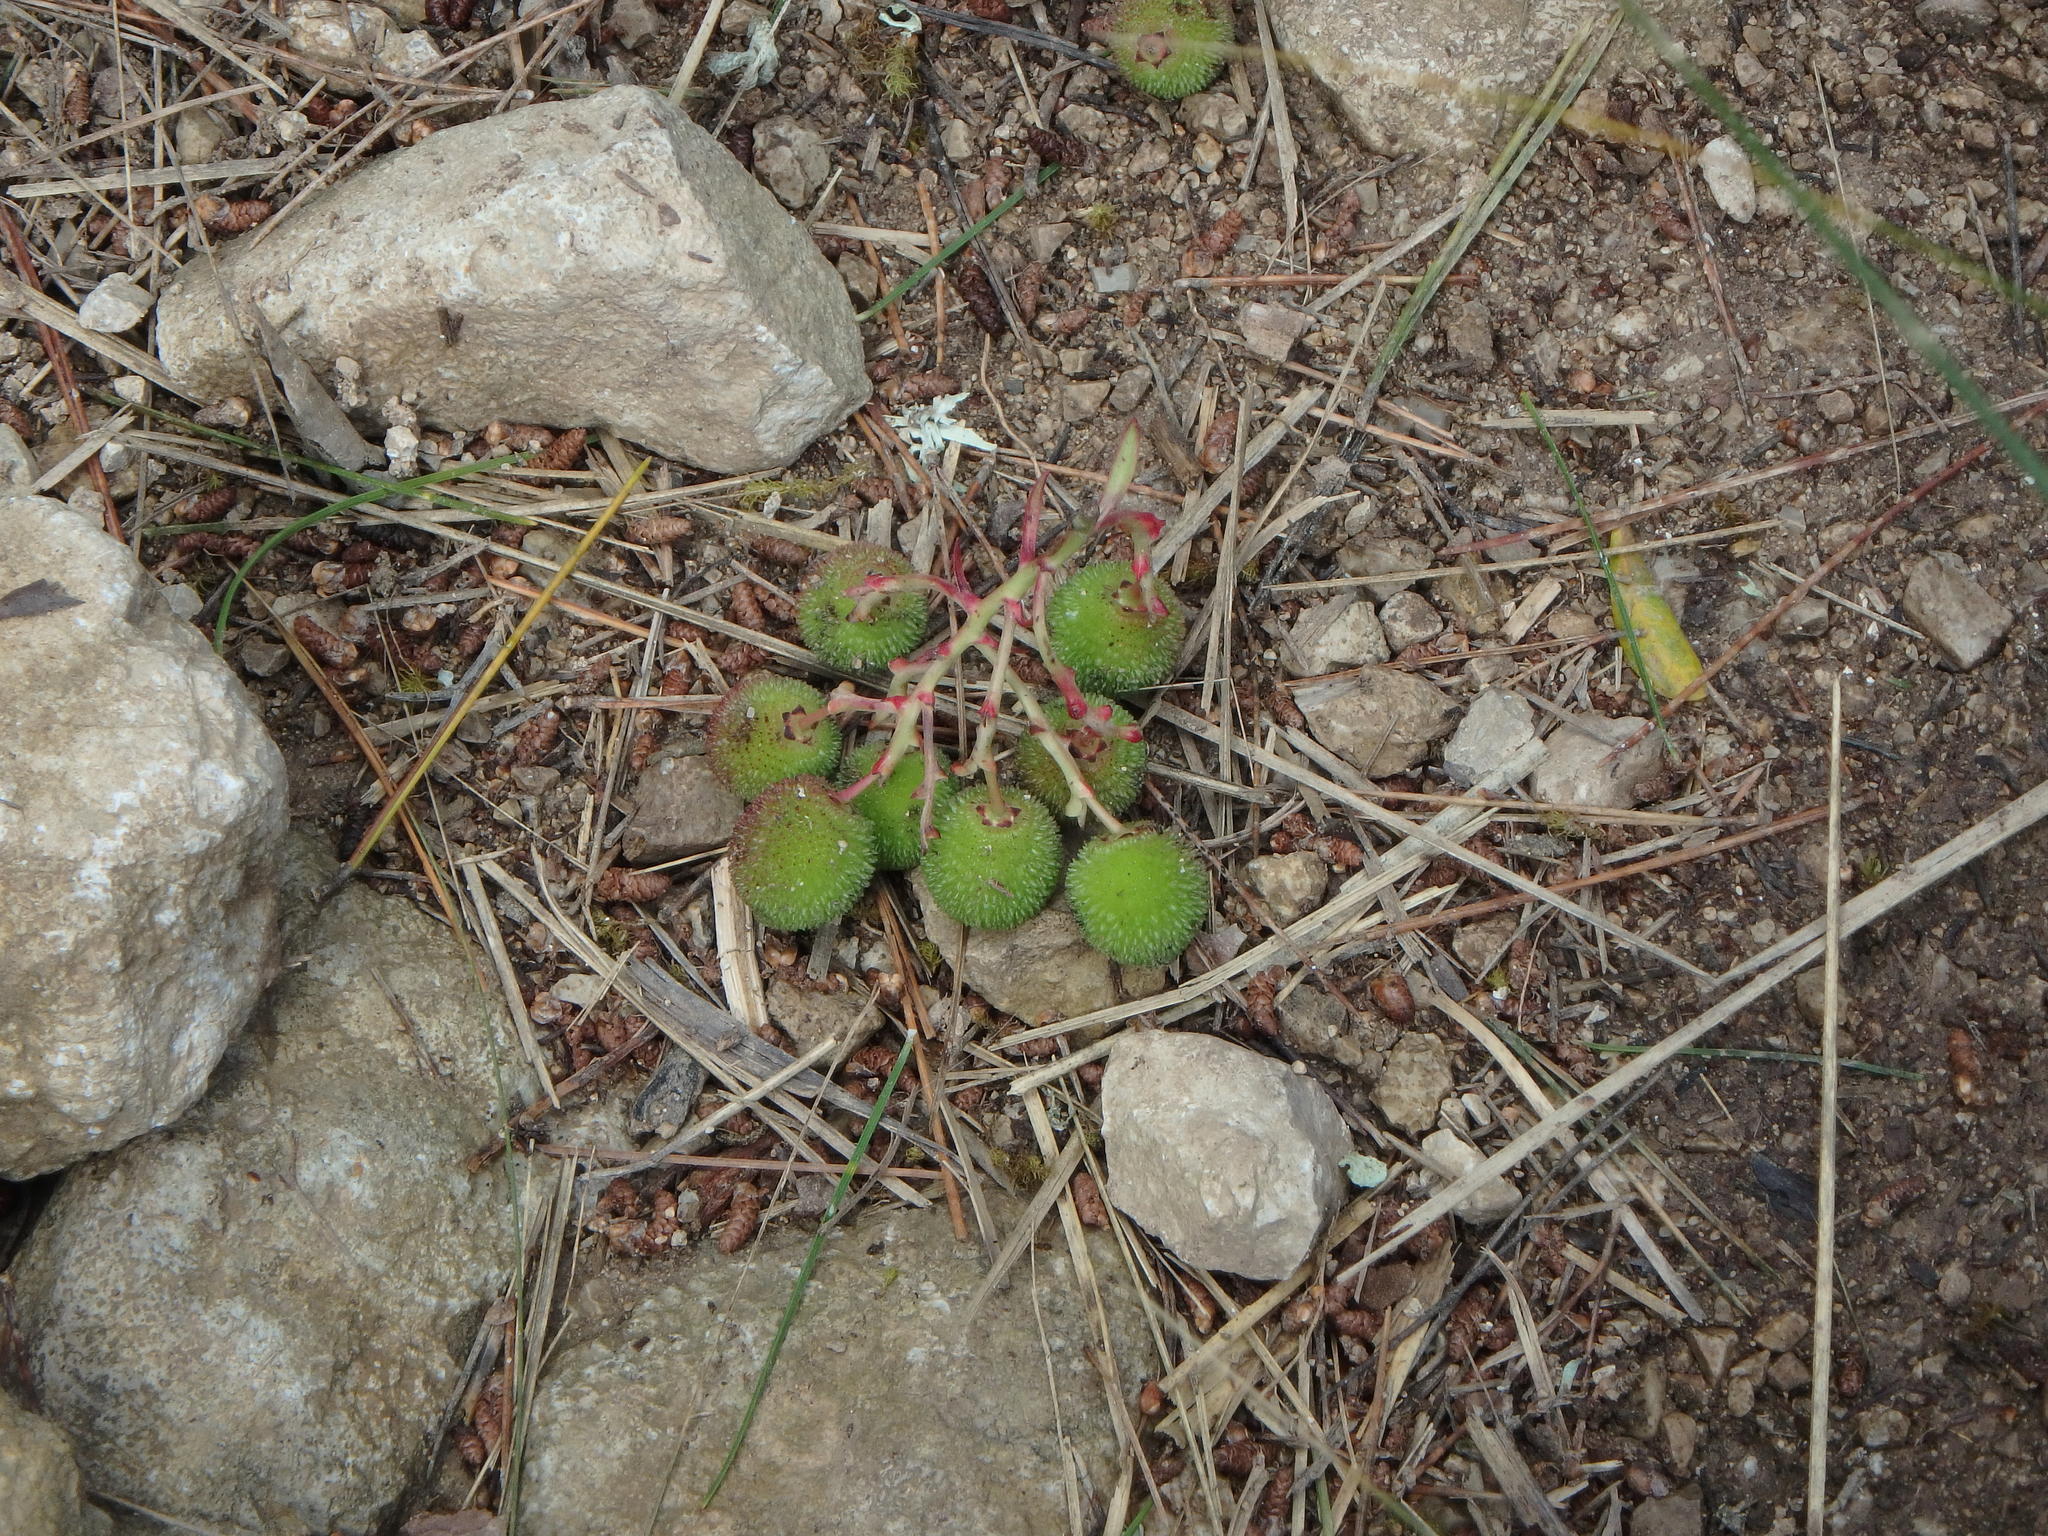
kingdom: Plantae
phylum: Tracheophyta
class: Magnoliopsida
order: Ericales
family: Ericaceae
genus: Arbutus
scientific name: Arbutus unedo
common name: Strawberry-tree
